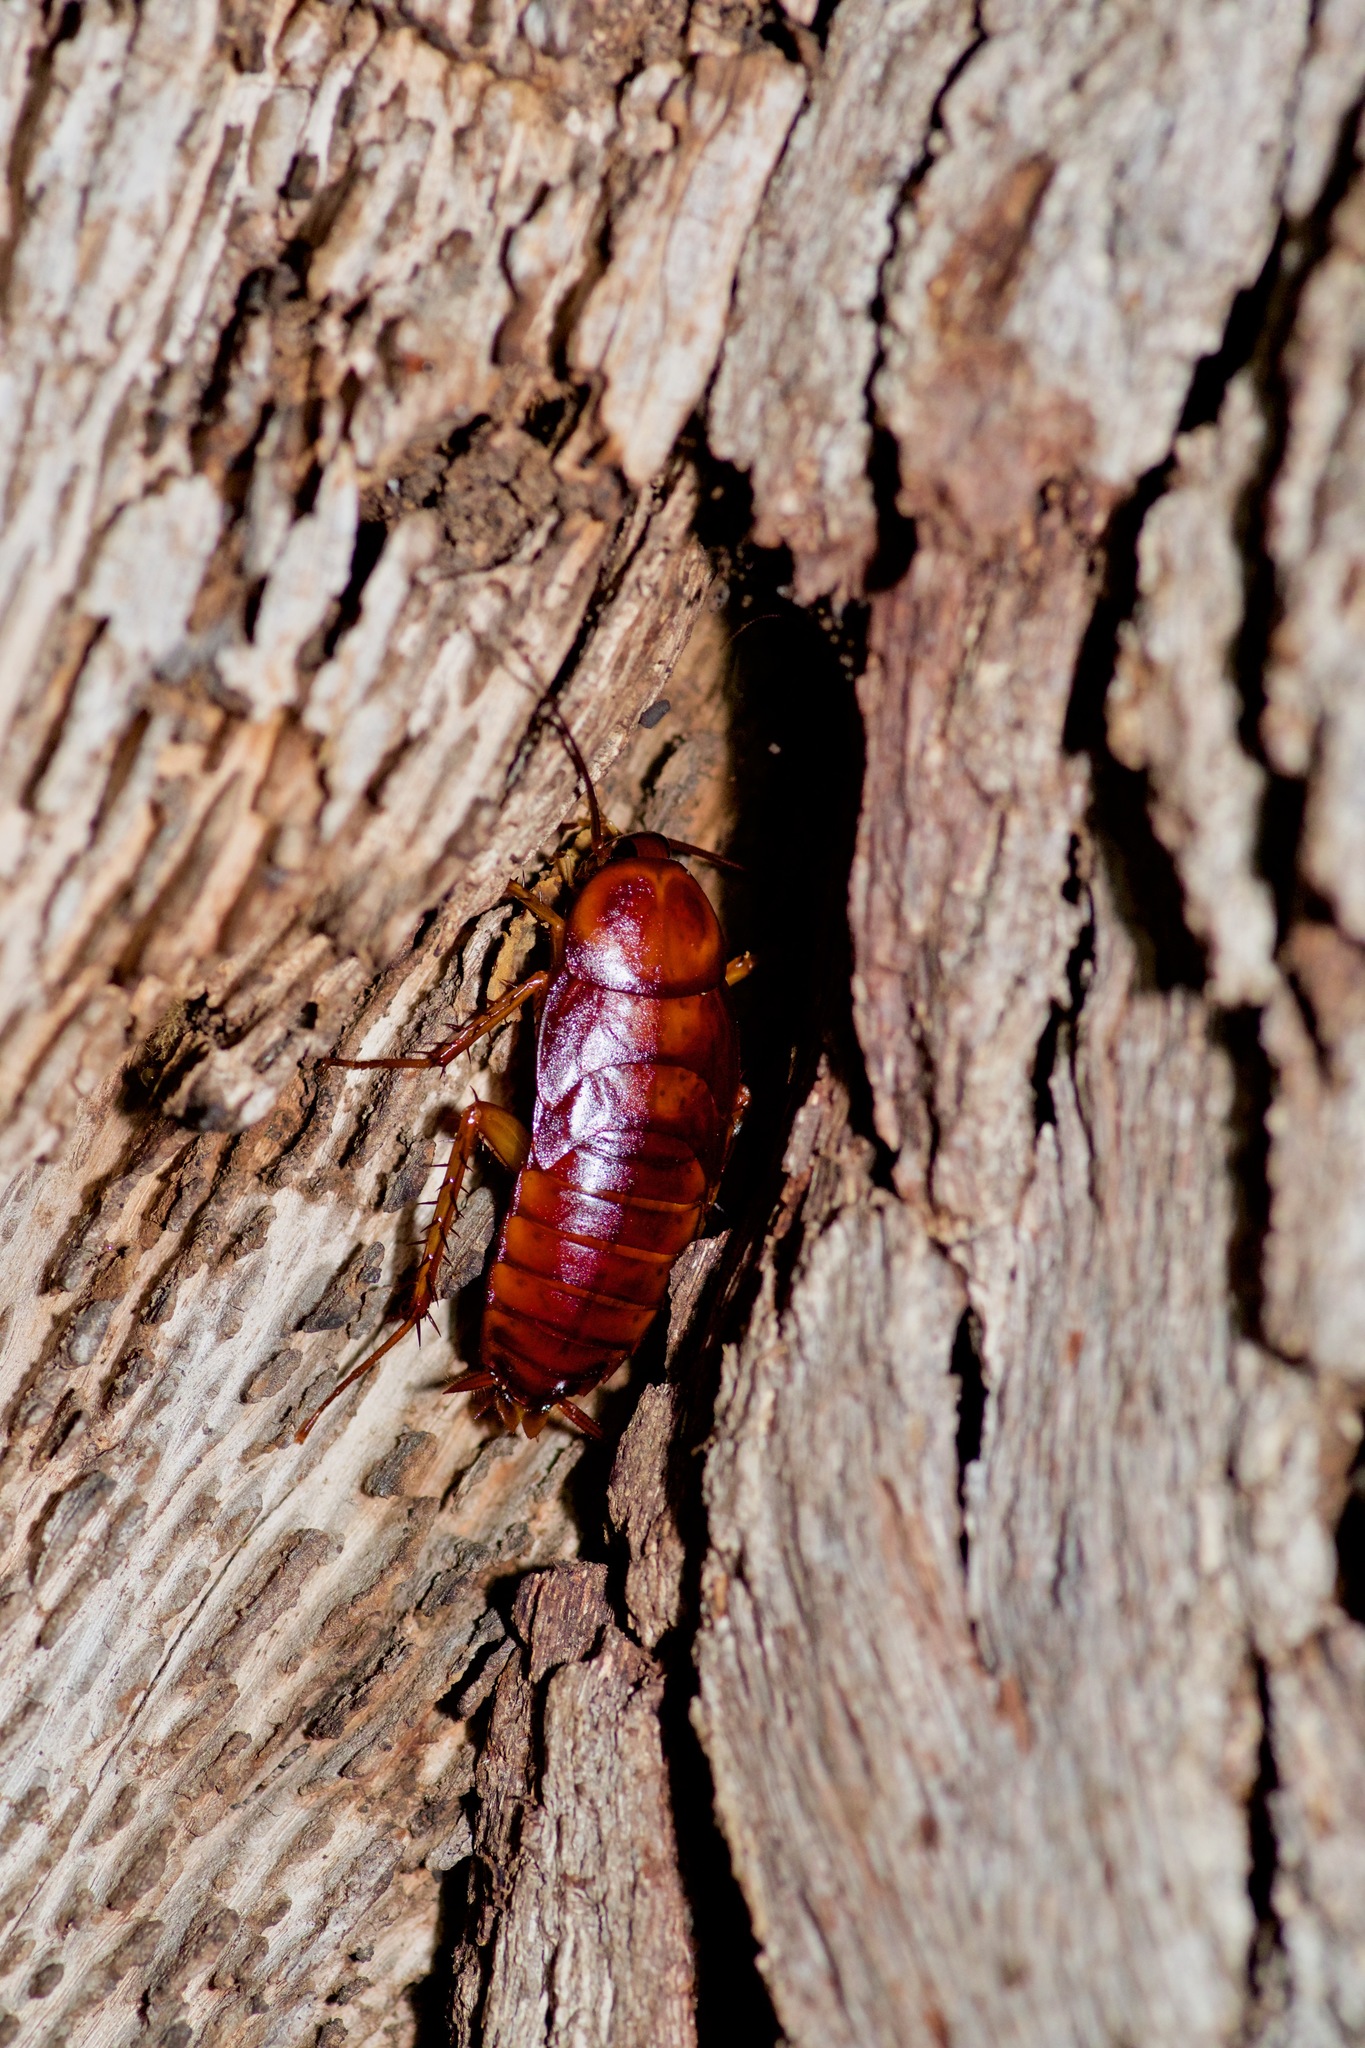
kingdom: Animalia
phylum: Arthropoda
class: Insecta
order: Blattodea
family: Blattidae
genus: Periplaneta
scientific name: Periplaneta fuliginosa
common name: Smokeybrown cockroad
